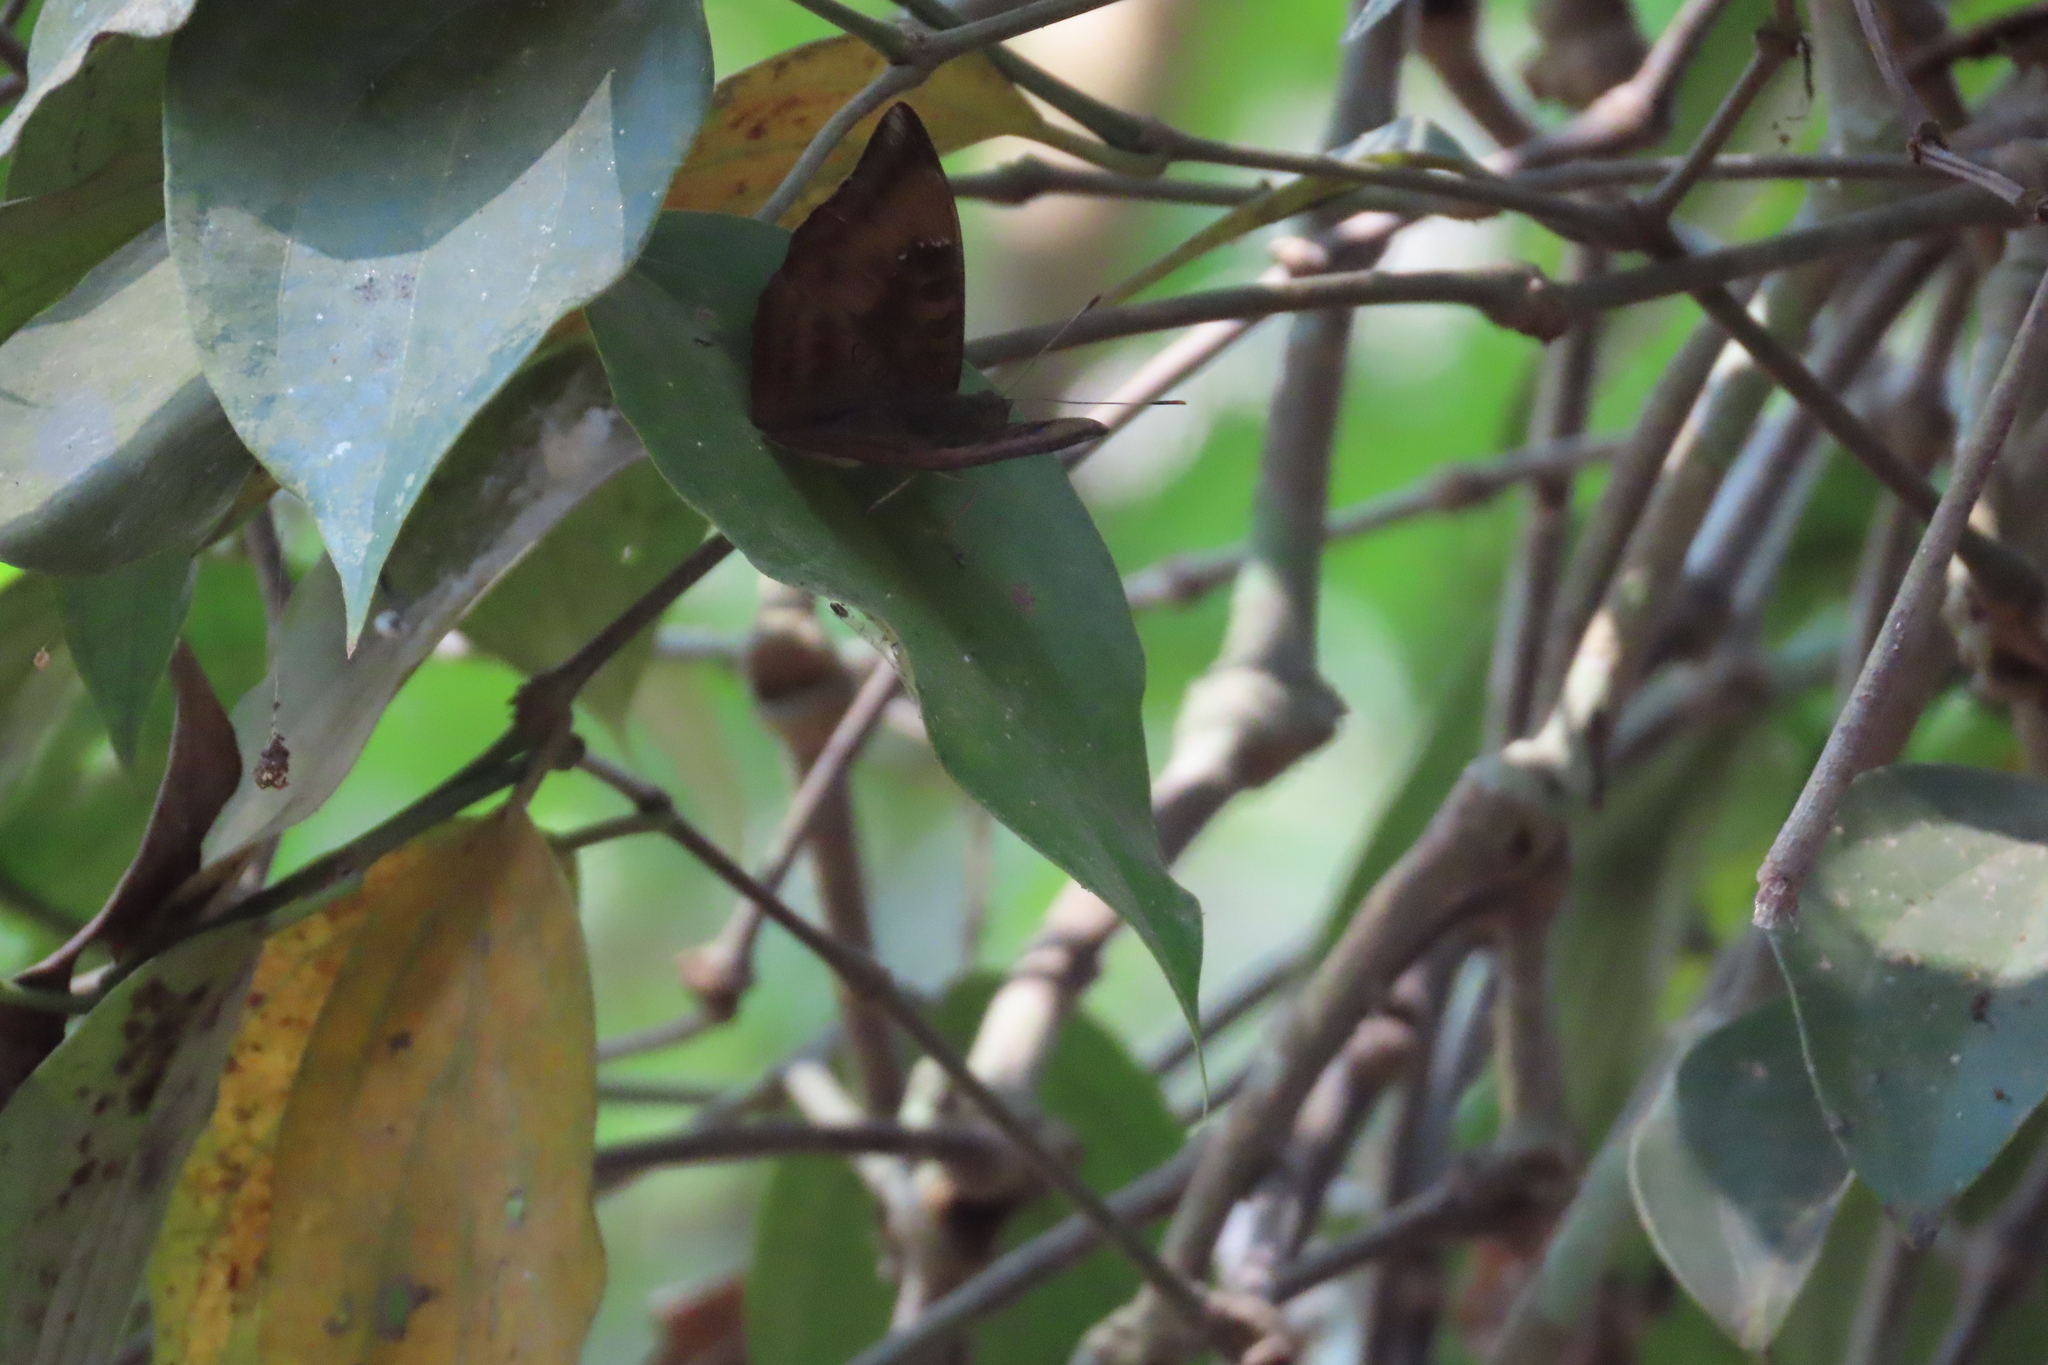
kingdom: Animalia
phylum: Arthropoda
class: Insecta
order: Lepidoptera
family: Nymphalidae
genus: Euthalia
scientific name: Euthalia aconthea
